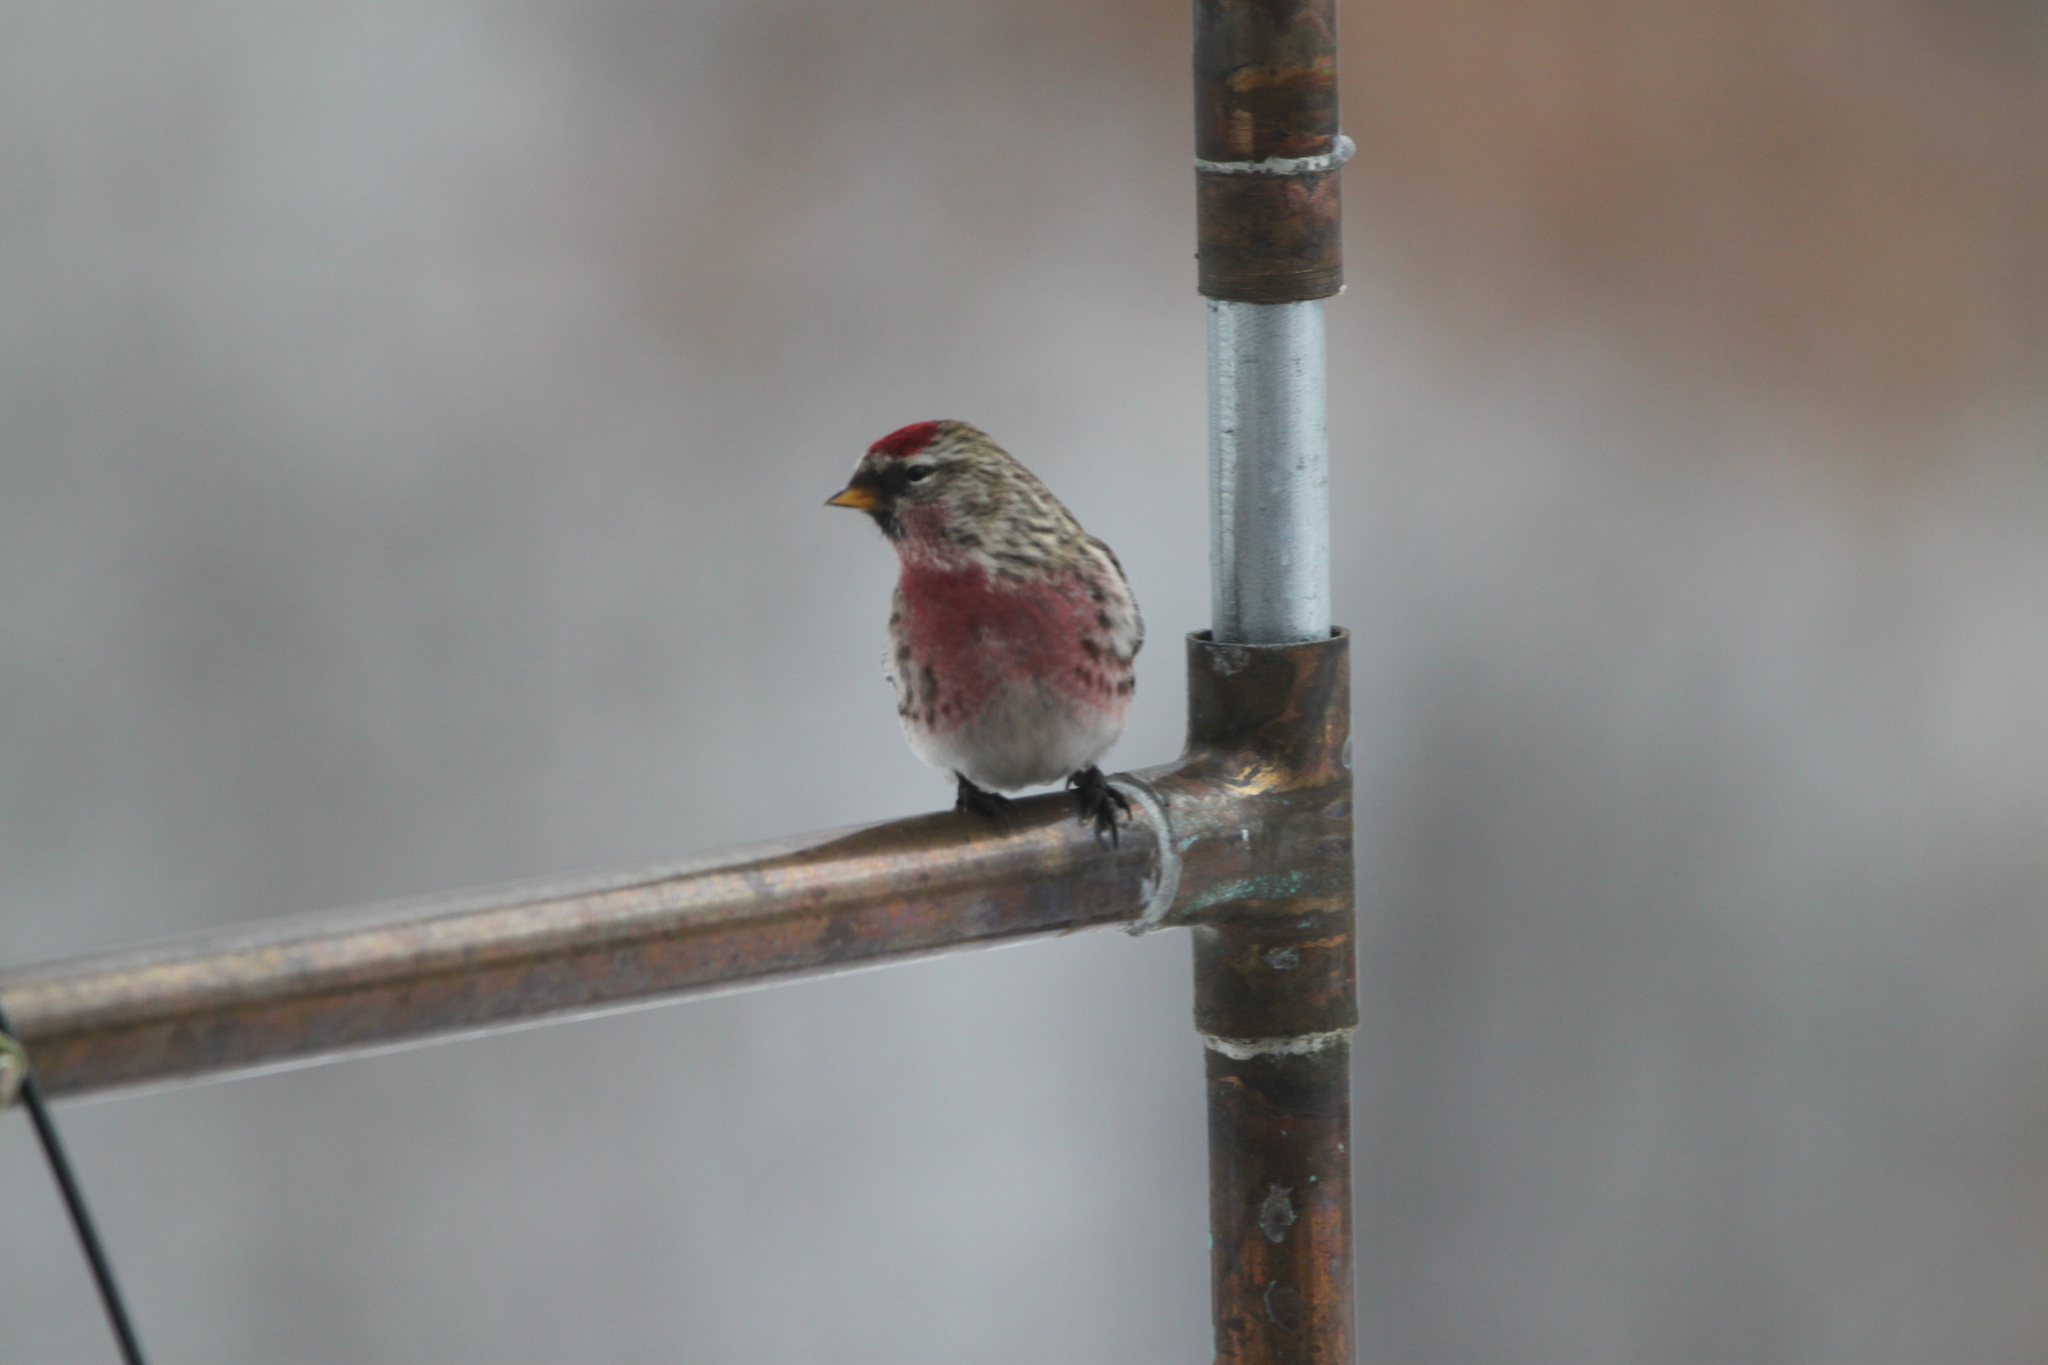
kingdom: Animalia
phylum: Chordata
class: Aves
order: Passeriformes
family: Fringillidae
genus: Acanthis
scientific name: Acanthis flammea
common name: Common redpoll
